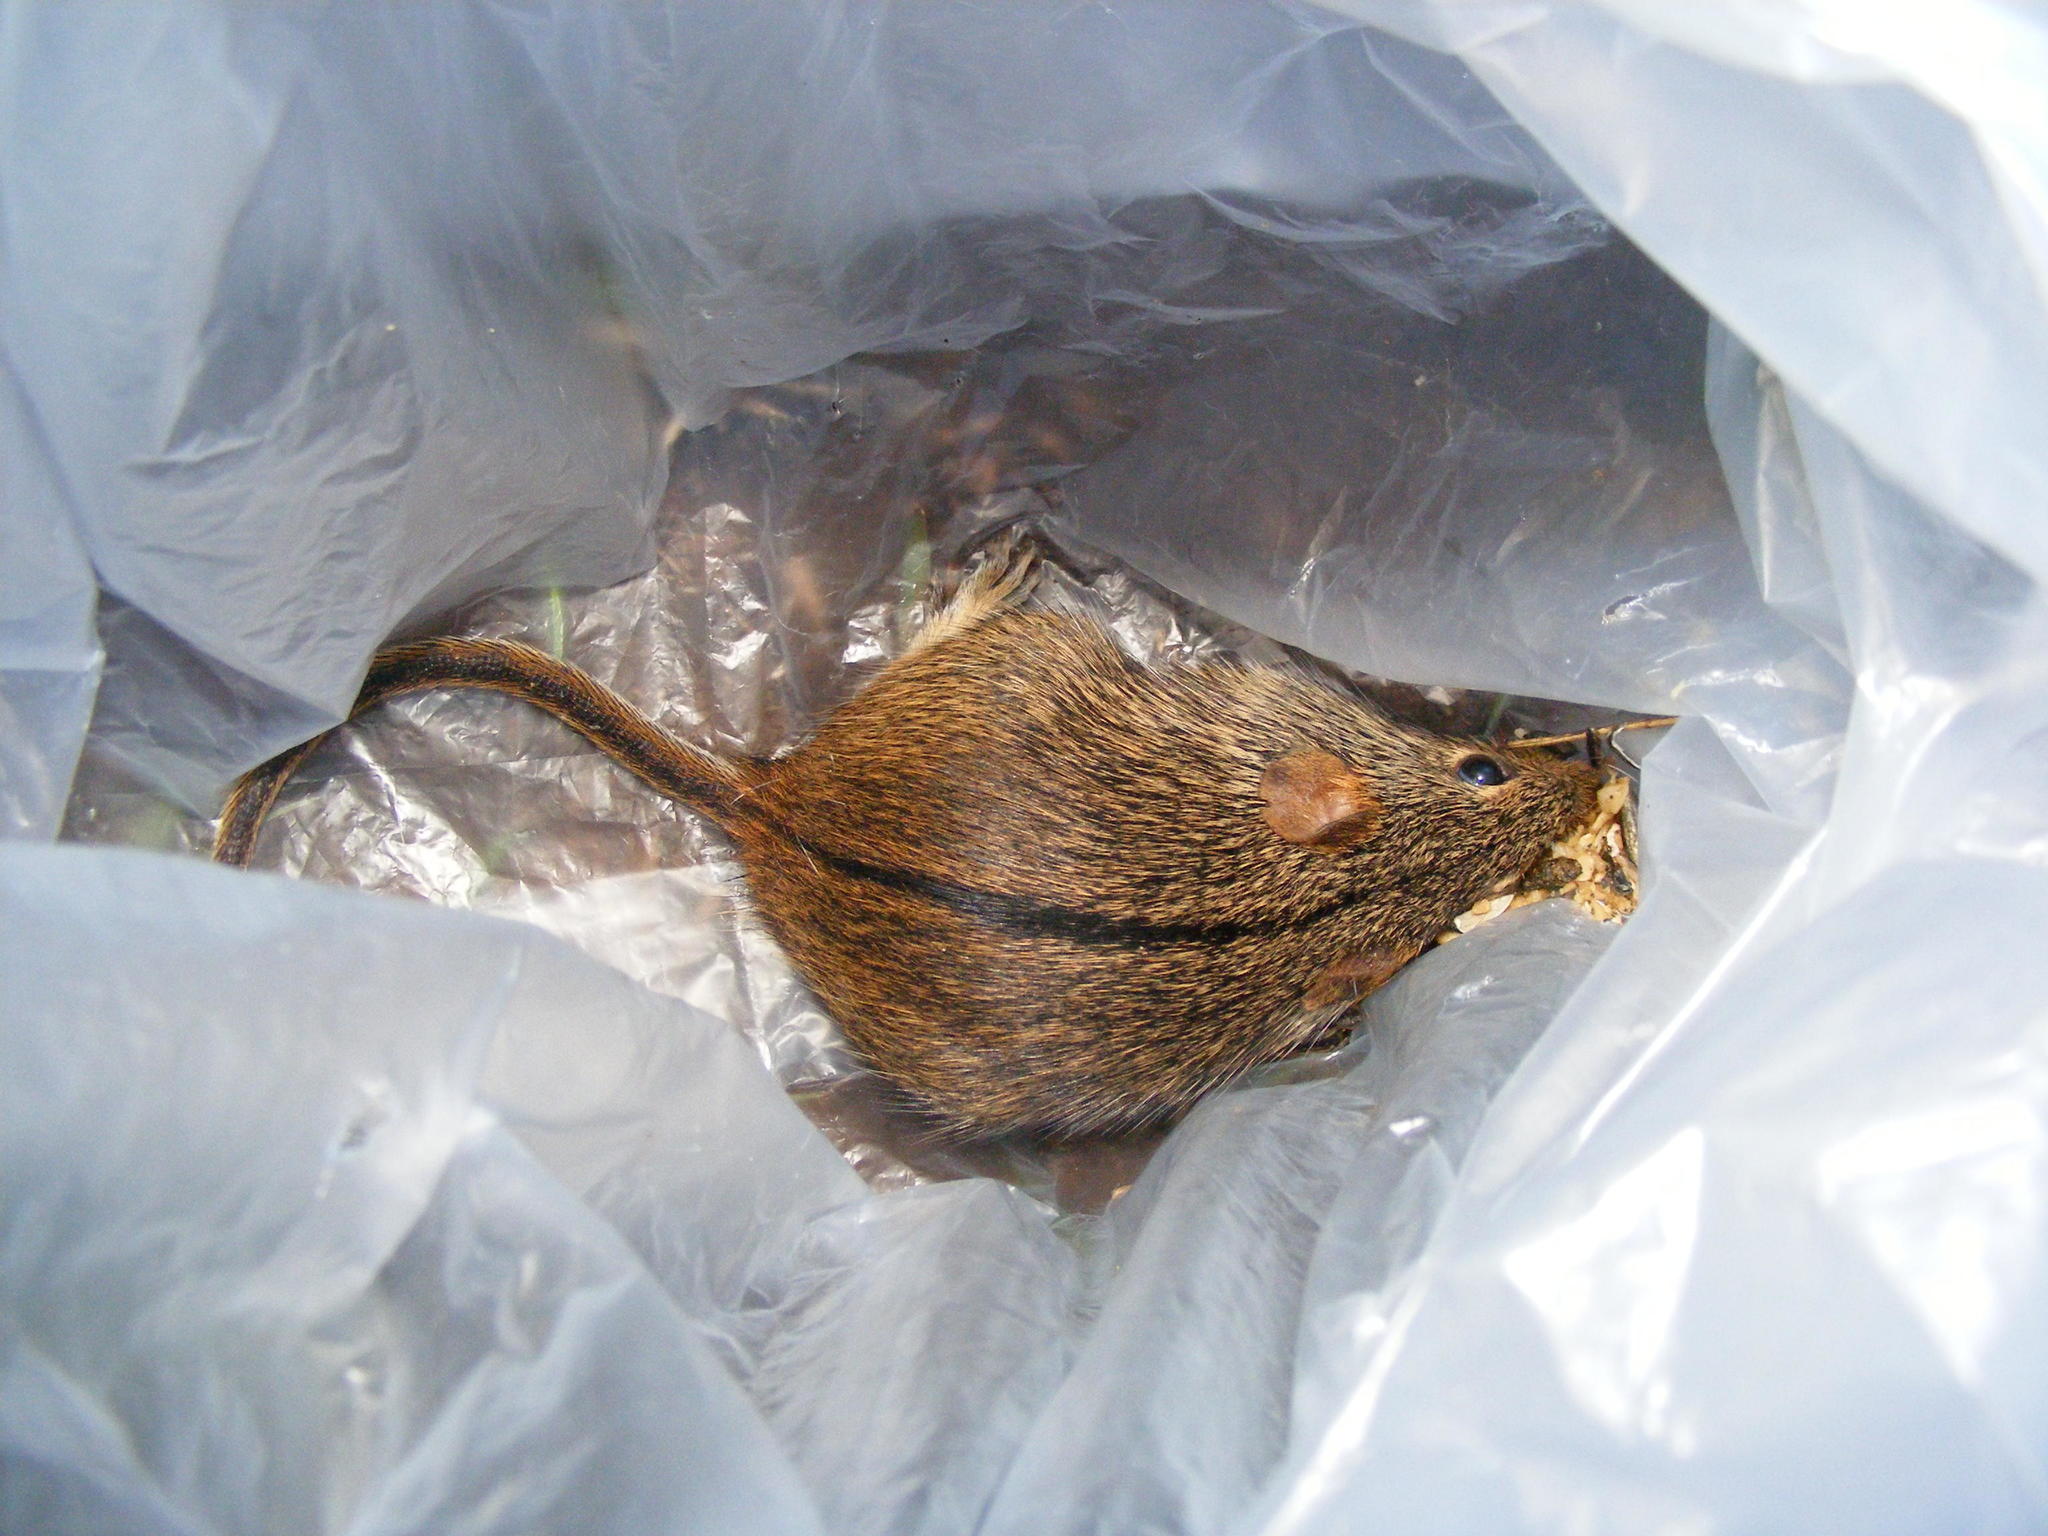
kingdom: Animalia
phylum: Chordata
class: Mammalia
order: Rodentia
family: Muridae
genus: Lemniscomys
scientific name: Lemniscomys rosalia
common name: Single-striped lemniscomys
